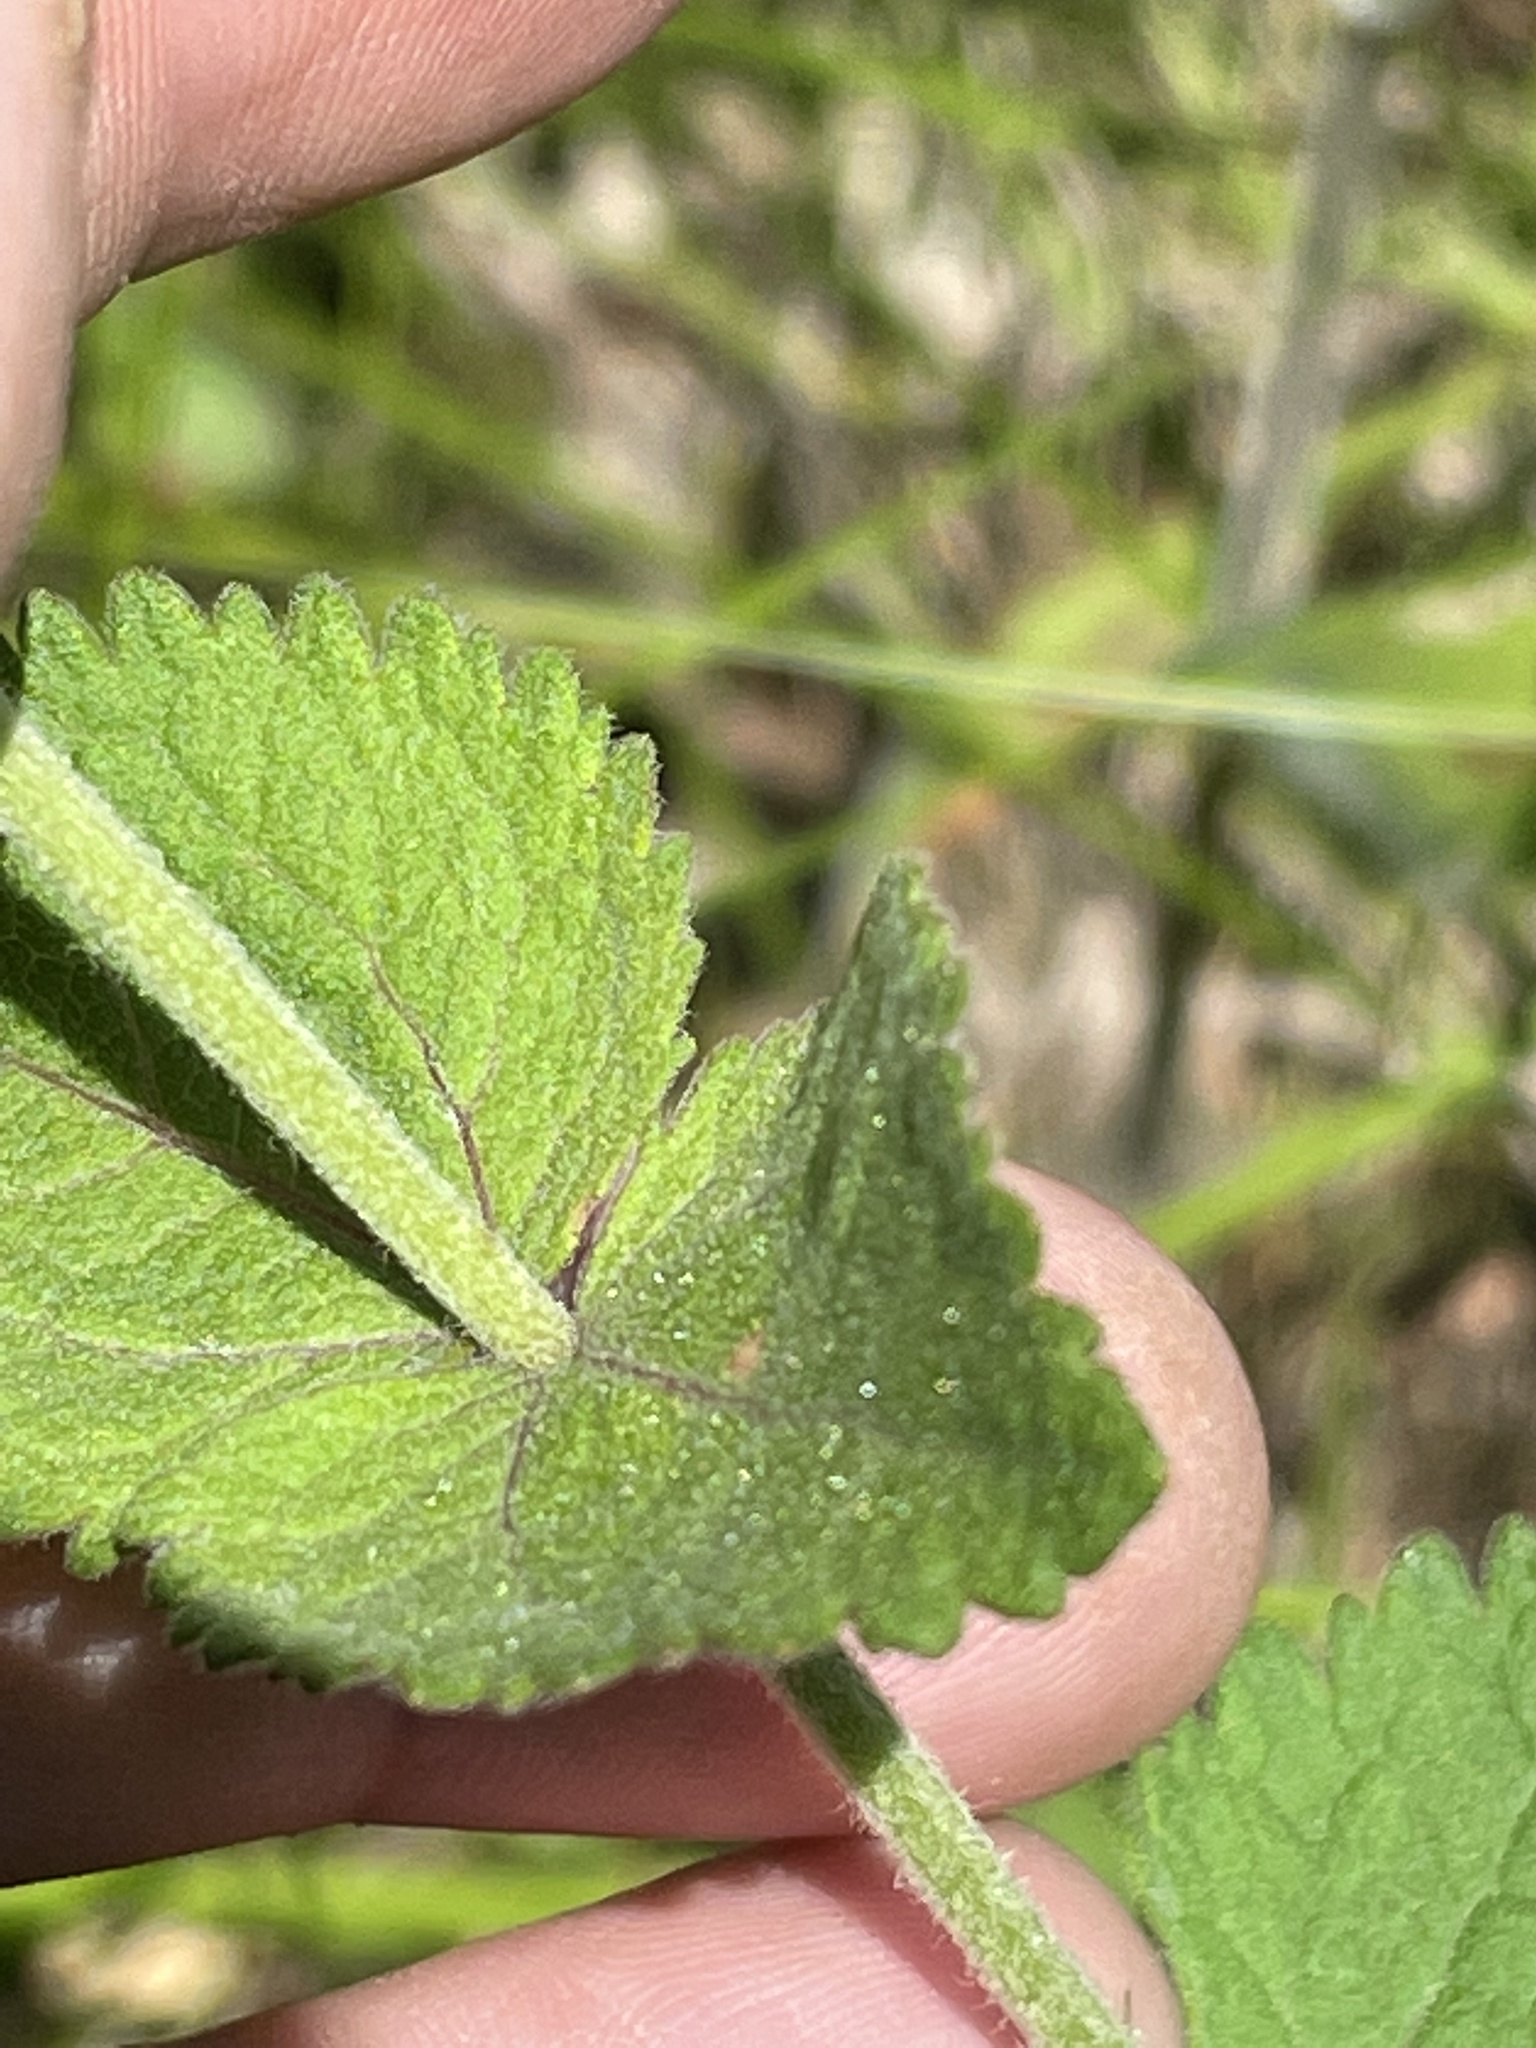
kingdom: Plantae
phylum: Tracheophyta
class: Magnoliopsida
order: Asterales
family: Asteraceae
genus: Eupatorium
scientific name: Eupatorium rotundifolium
